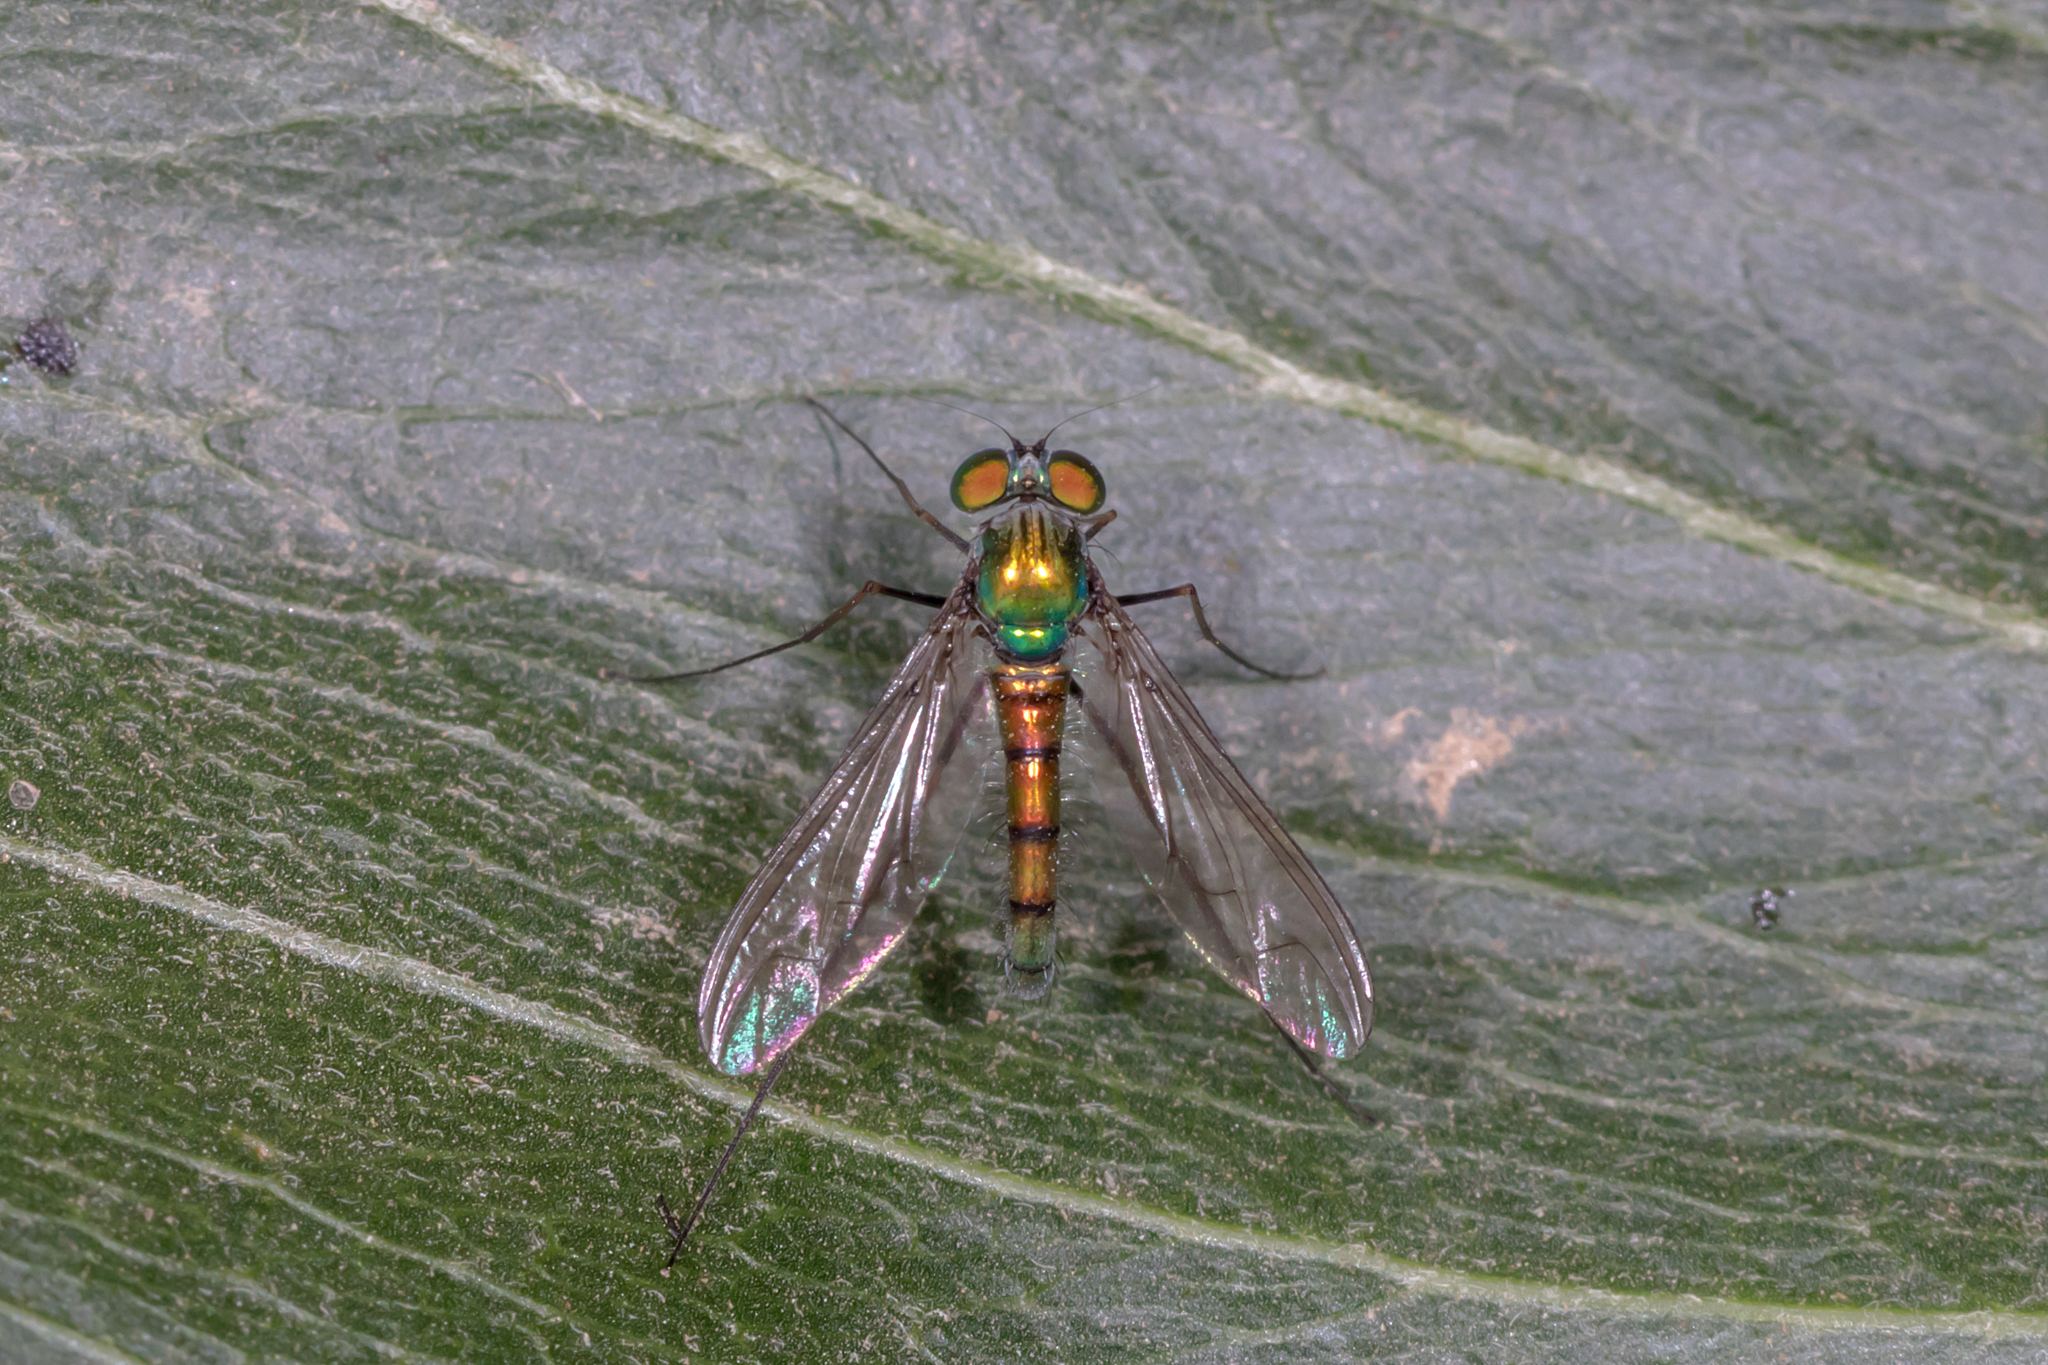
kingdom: Animalia
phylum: Arthropoda
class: Insecta
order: Diptera
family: Dolichopodidae
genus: Heteropsilopus
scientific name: Heteropsilopus cingulipes
